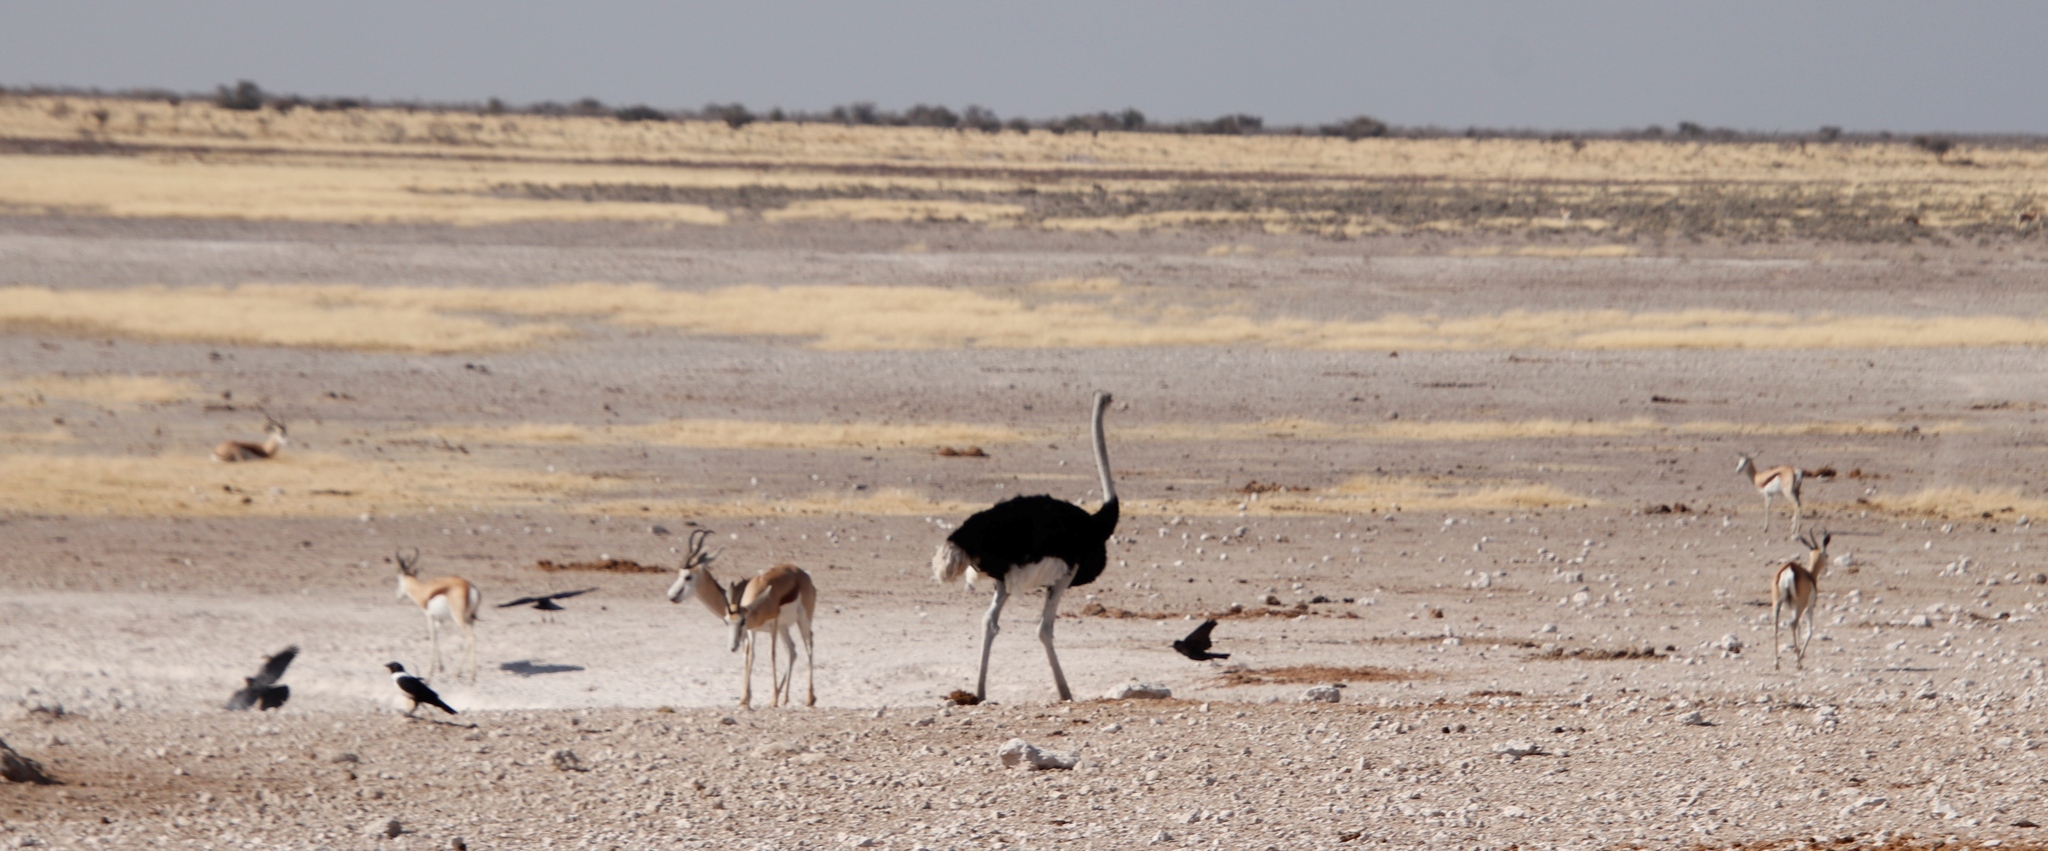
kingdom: Animalia
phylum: Chordata
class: Aves
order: Struthioniformes
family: Struthionidae
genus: Struthio
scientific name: Struthio camelus
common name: Common ostrich
